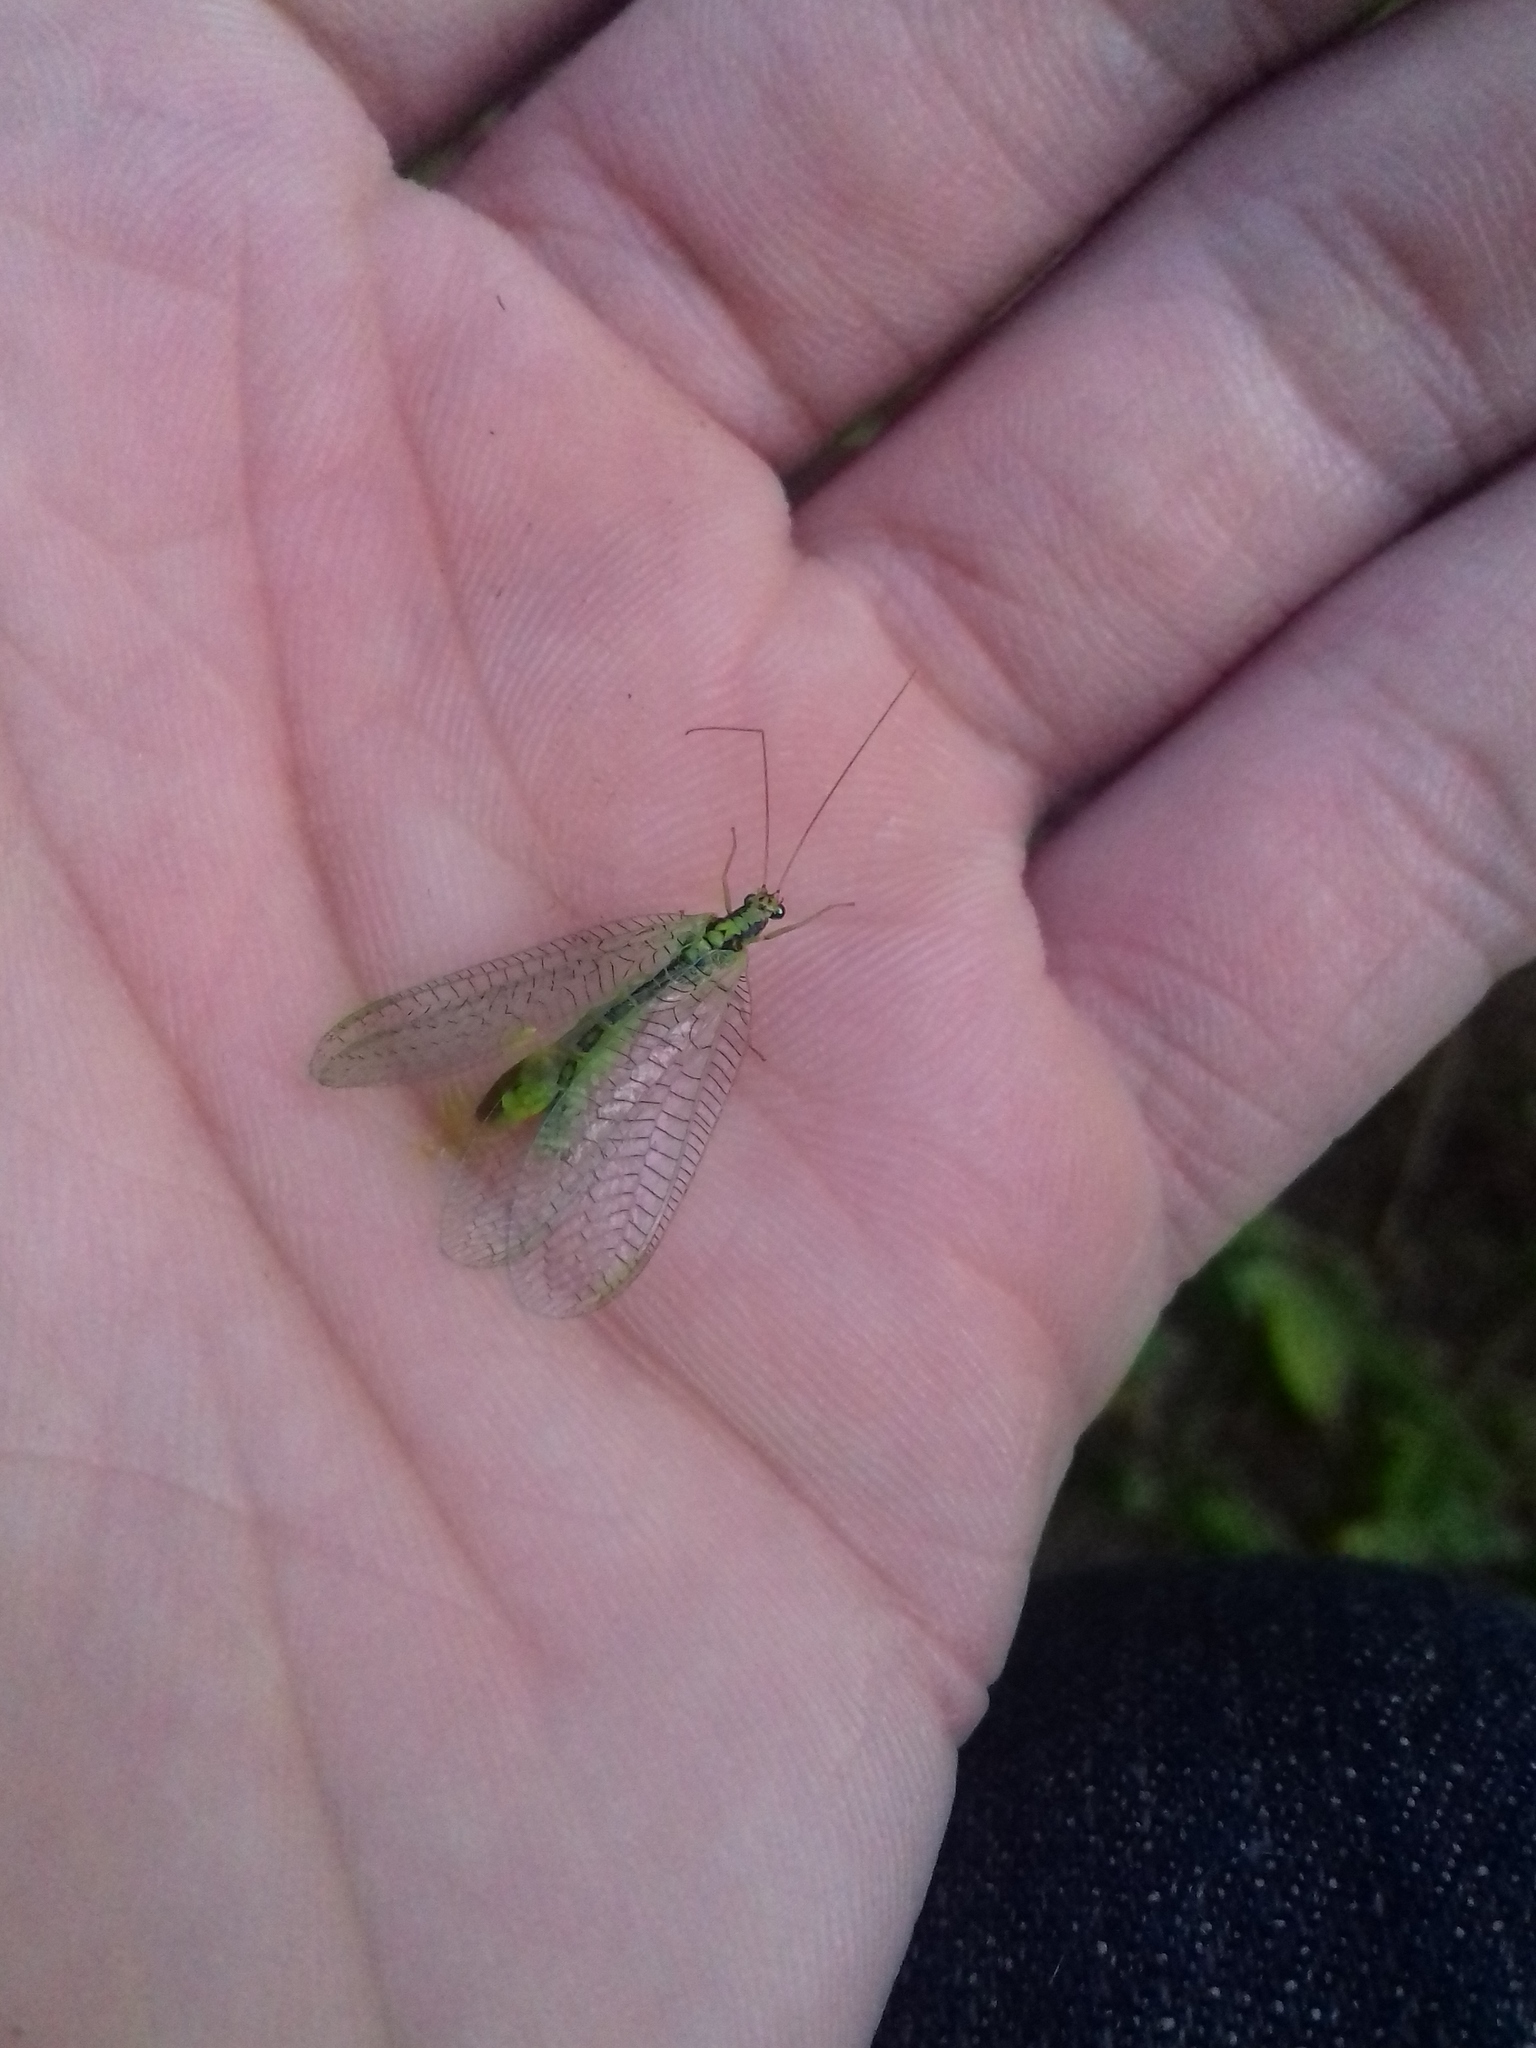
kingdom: Animalia
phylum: Arthropoda
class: Insecta
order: Neuroptera
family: Chrysopidae
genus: Chrysopa
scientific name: Chrysopa perla
